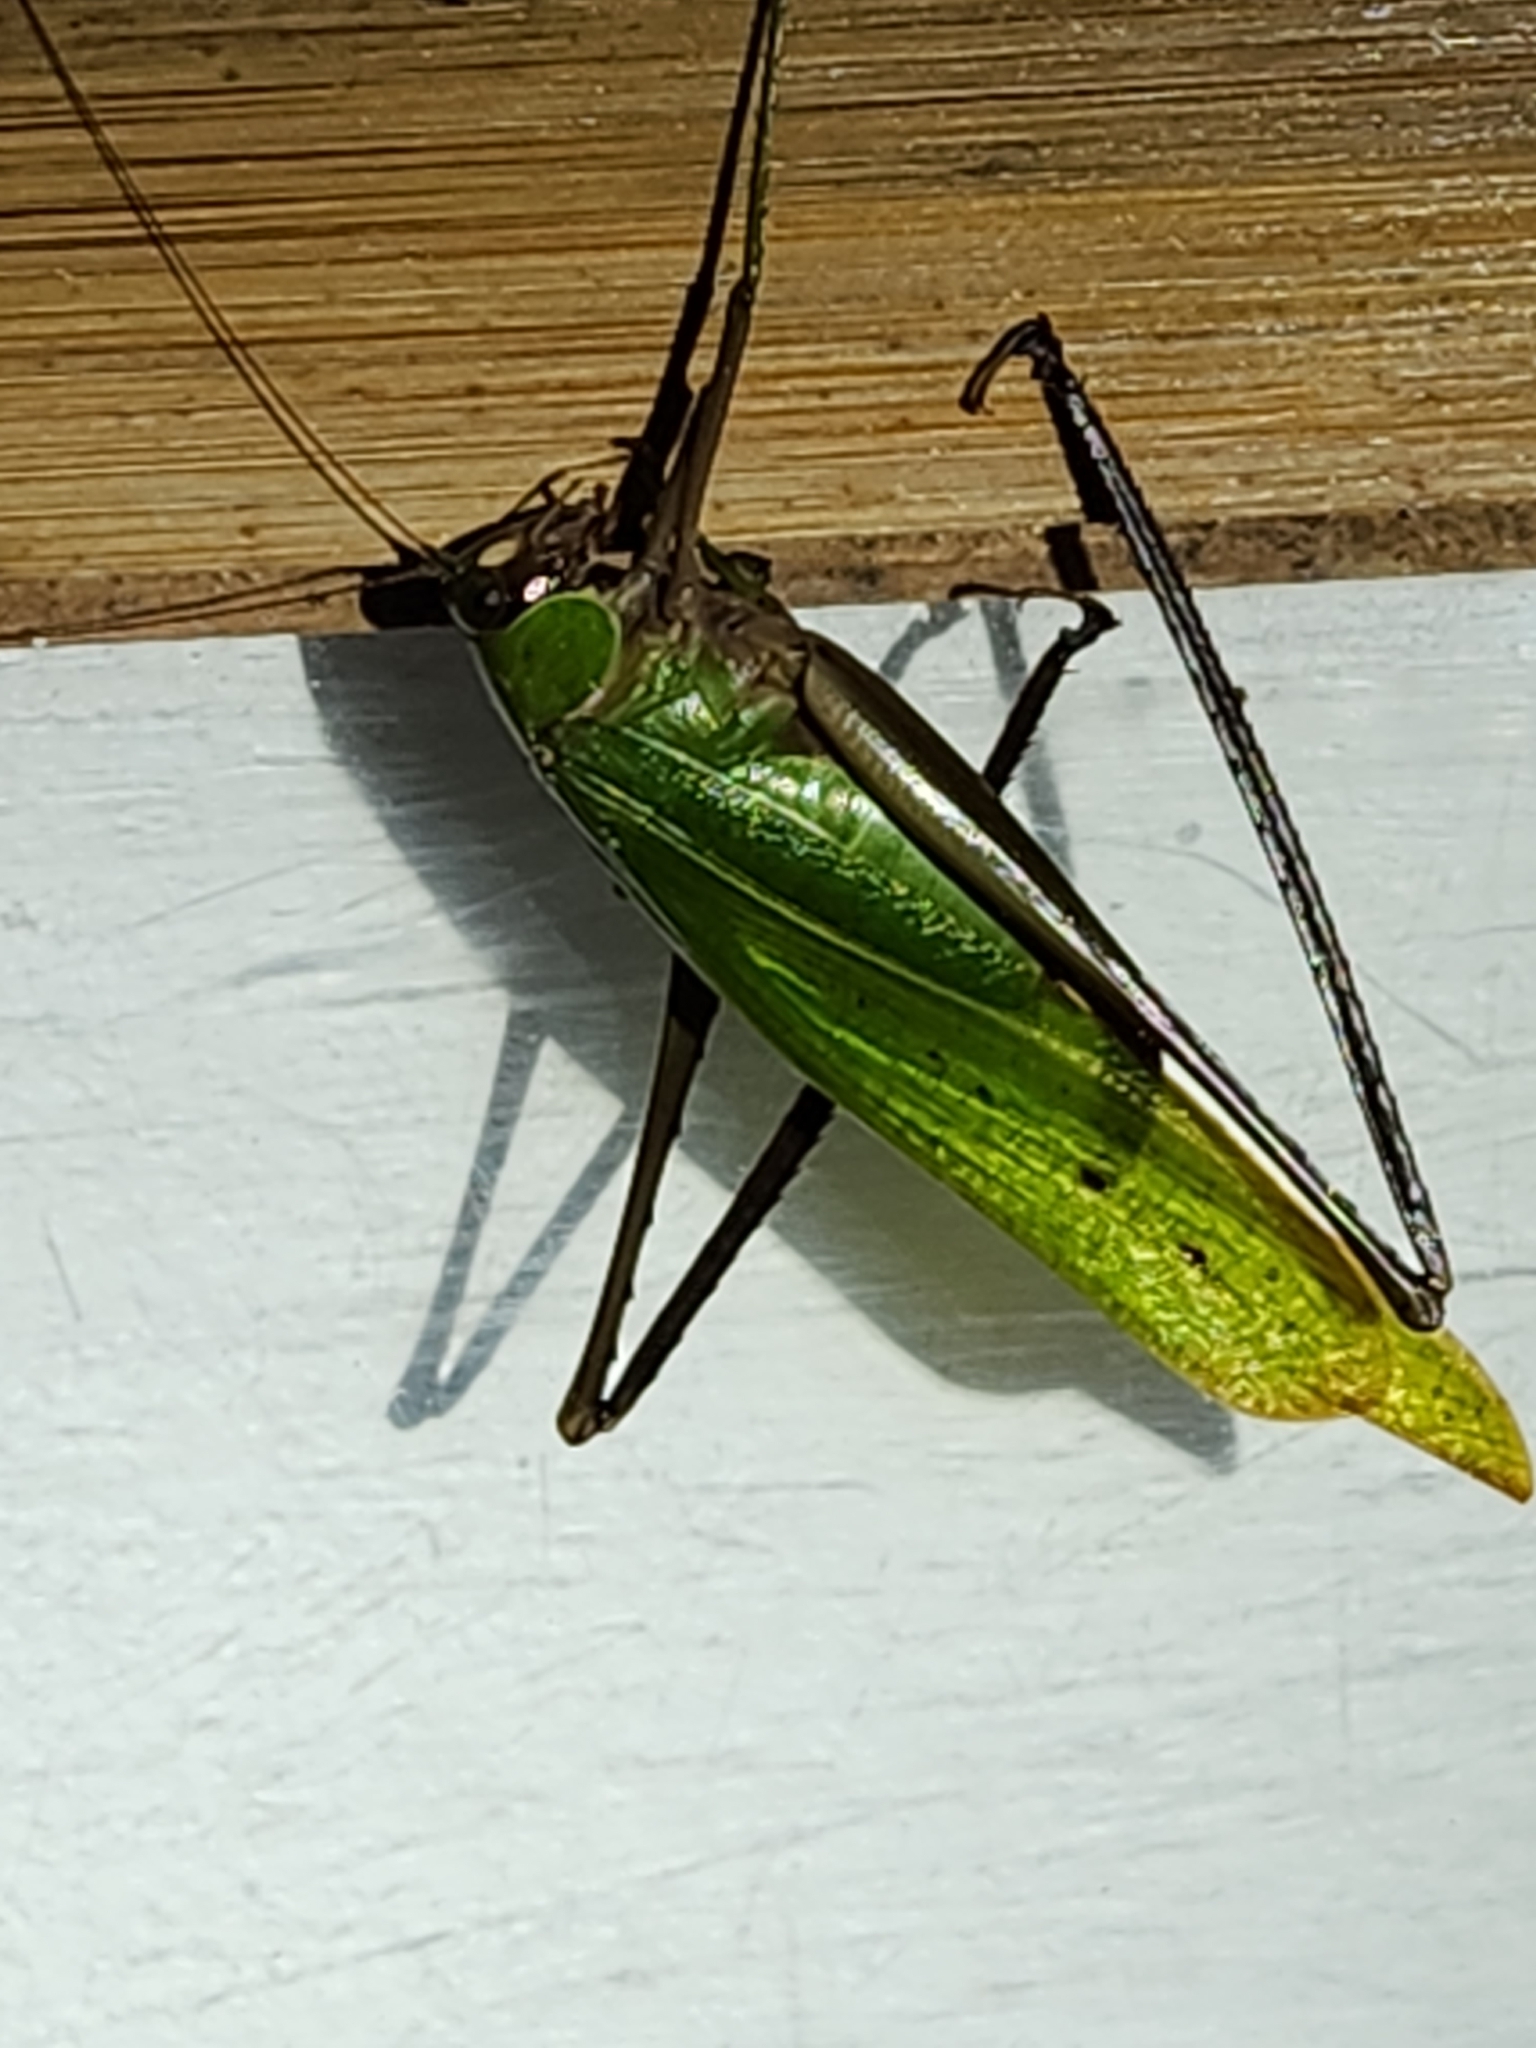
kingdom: Animalia
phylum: Arthropoda
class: Insecta
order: Orthoptera
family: Tettigoniidae
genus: Ceraia
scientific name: Ceraia panamensis
